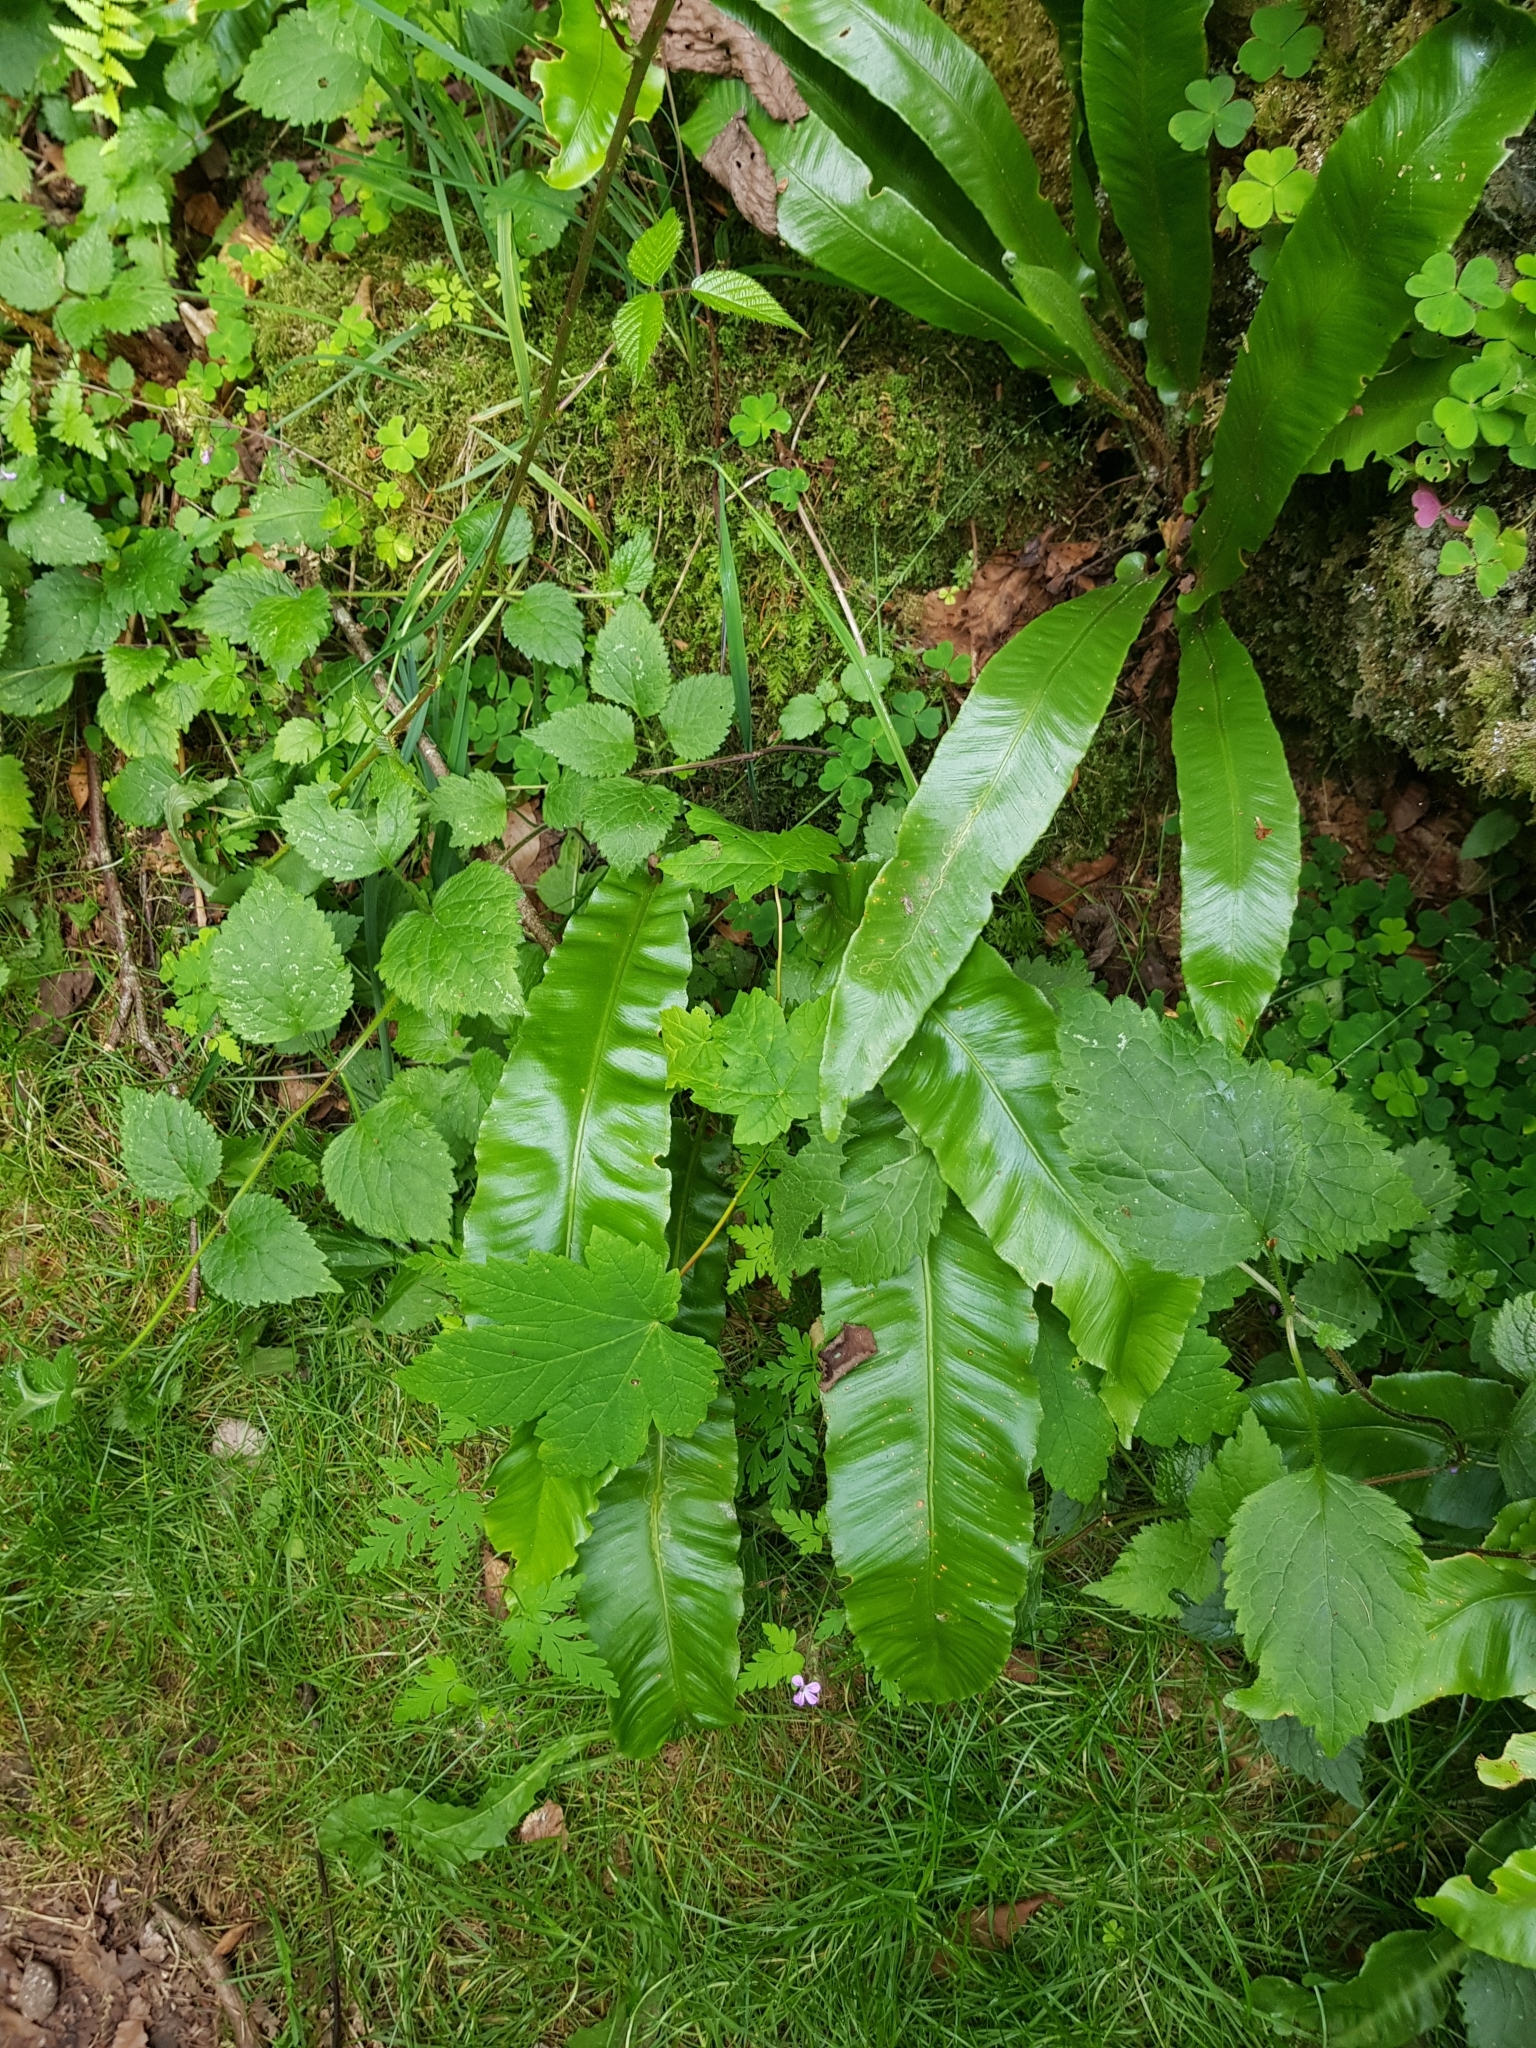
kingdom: Plantae
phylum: Tracheophyta
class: Polypodiopsida
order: Polypodiales
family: Aspleniaceae
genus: Asplenium
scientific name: Asplenium scolopendrium
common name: Hart's-tongue fern
